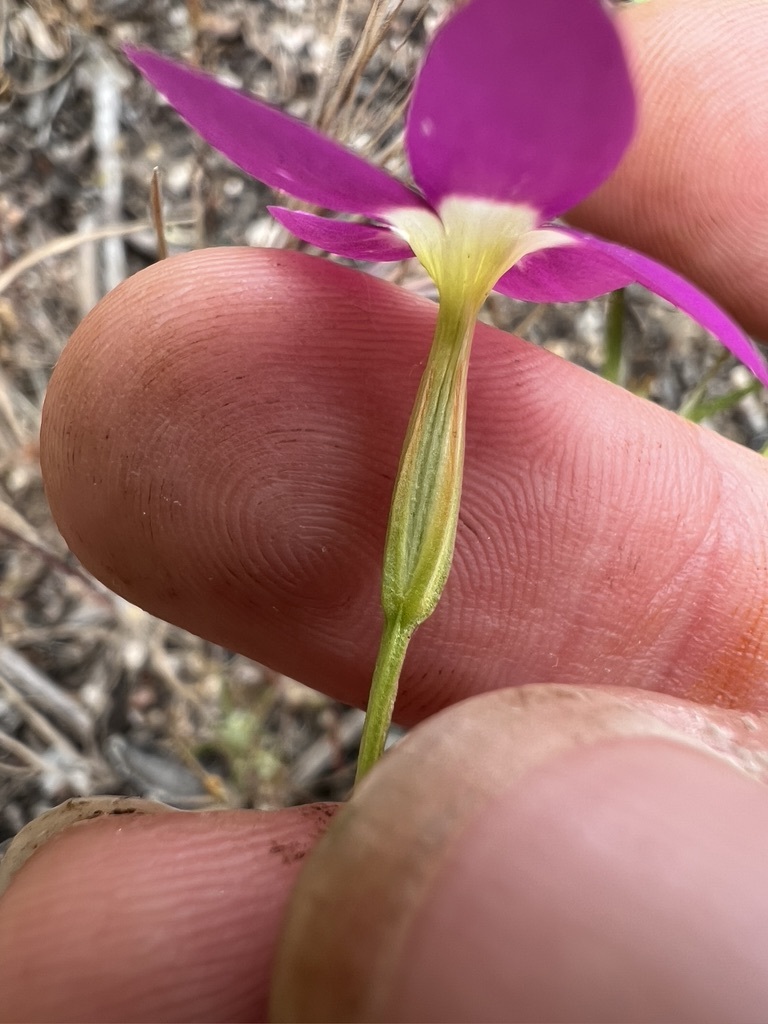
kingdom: Plantae
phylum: Tracheophyta
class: Magnoliopsida
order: Gentianales
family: Gentianaceae
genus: Zeltnera
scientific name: Zeltnera venusta
